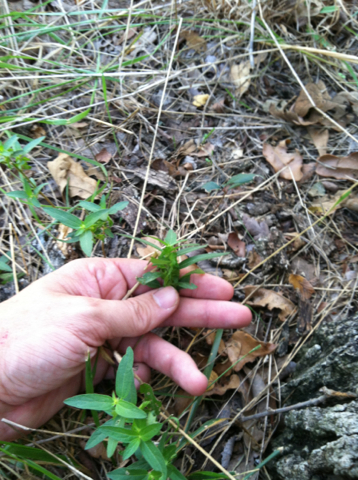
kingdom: Plantae
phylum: Tracheophyta
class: Magnoliopsida
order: Malpighiales
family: Euphorbiaceae
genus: Acalypha
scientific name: Acalypha virginica
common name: Virginia copperleaf
